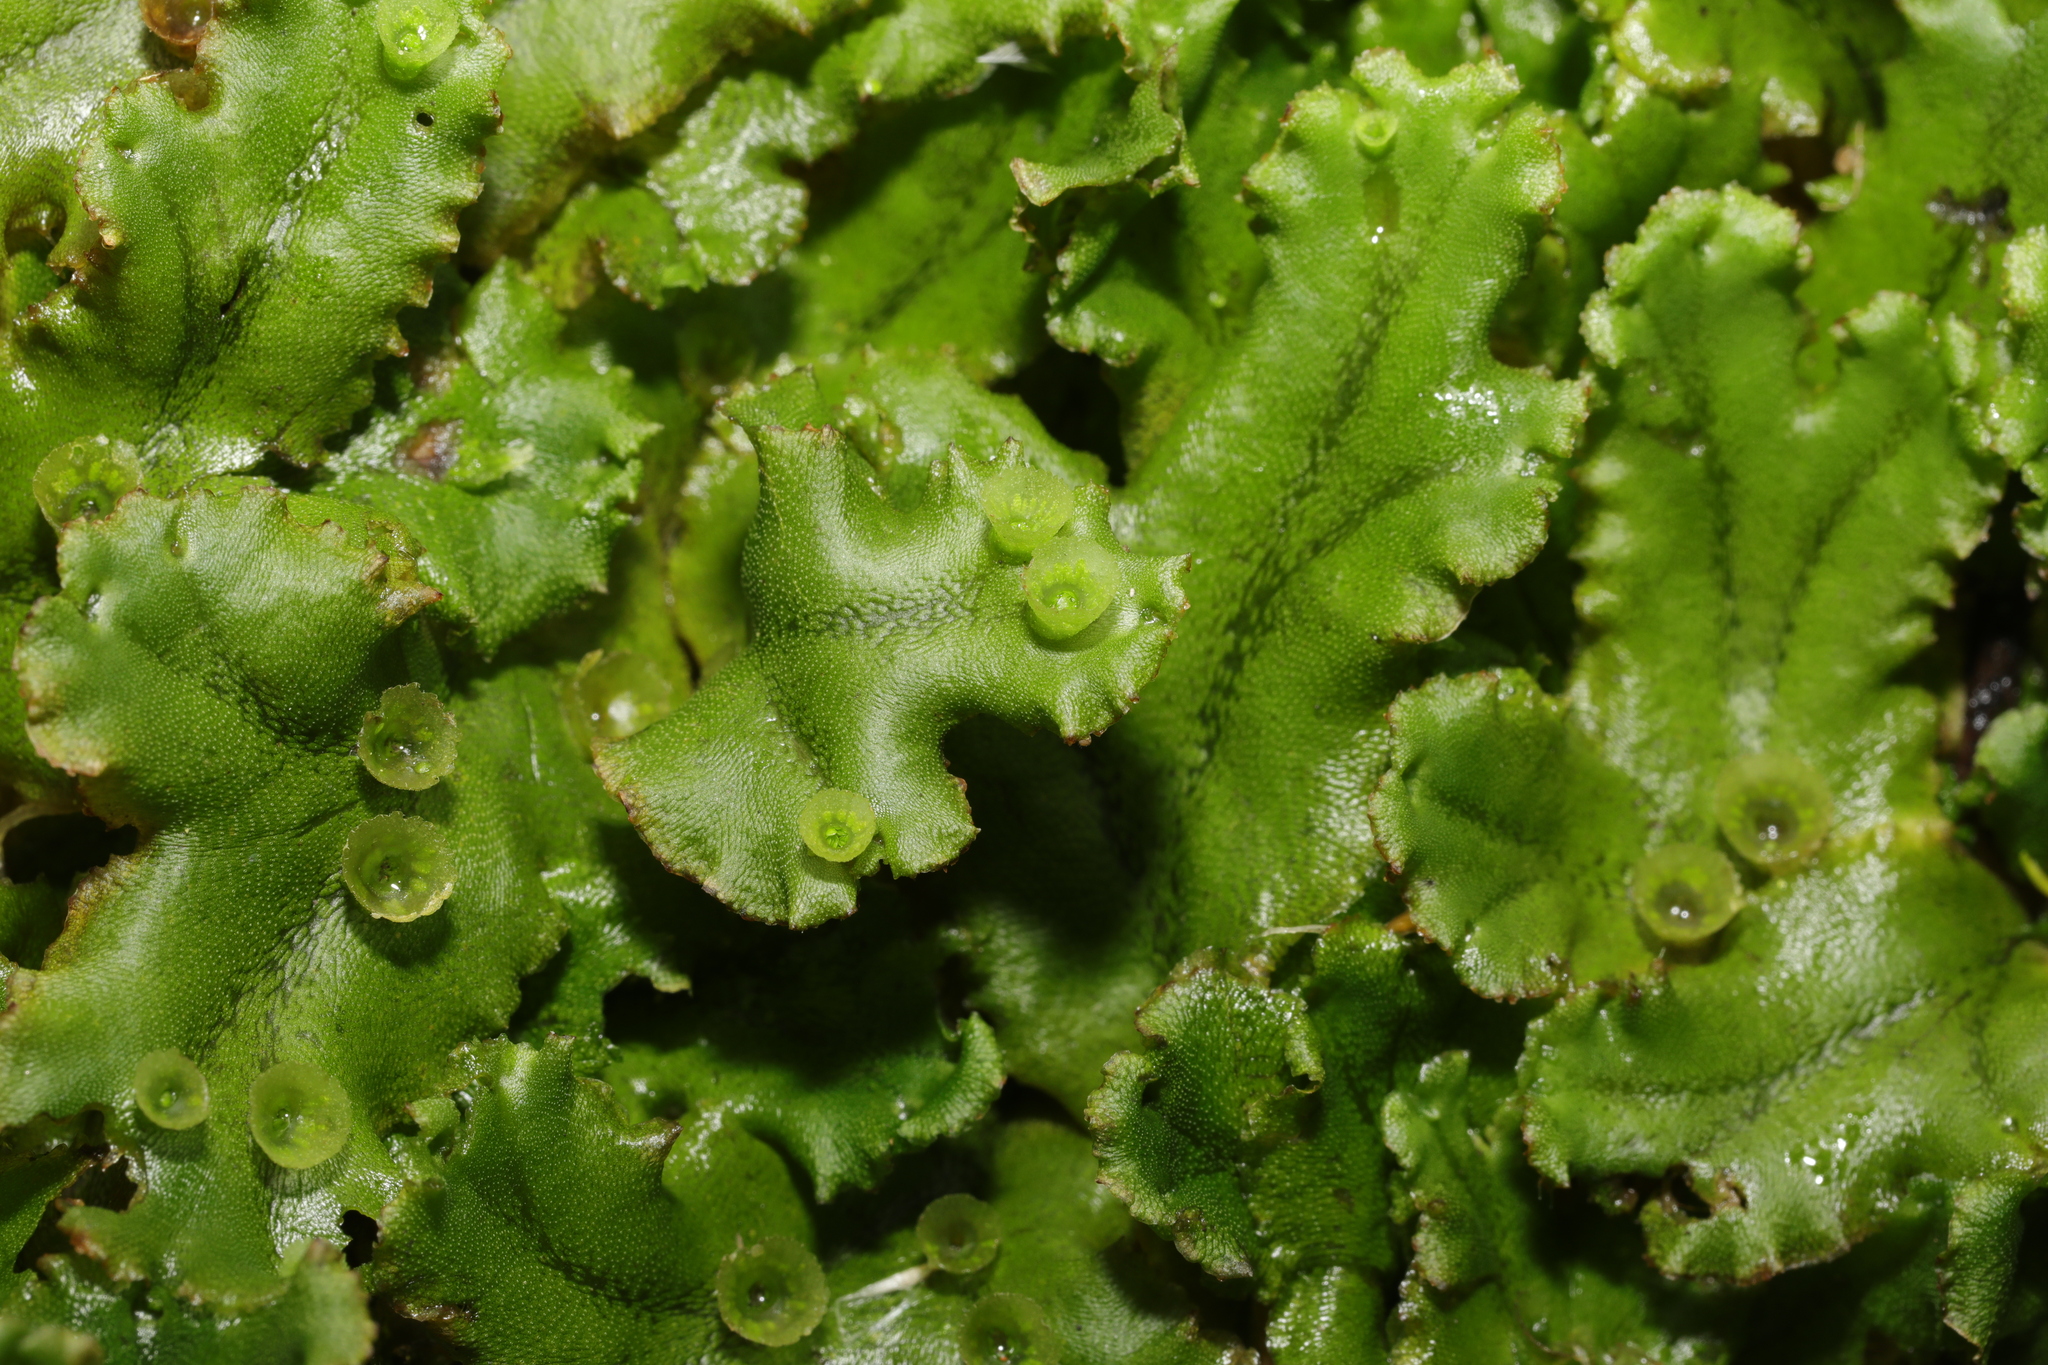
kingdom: Plantae
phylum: Marchantiophyta
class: Marchantiopsida
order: Marchantiales
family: Marchantiaceae
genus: Marchantia
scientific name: Marchantia polymorpha
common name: Common liverwort
